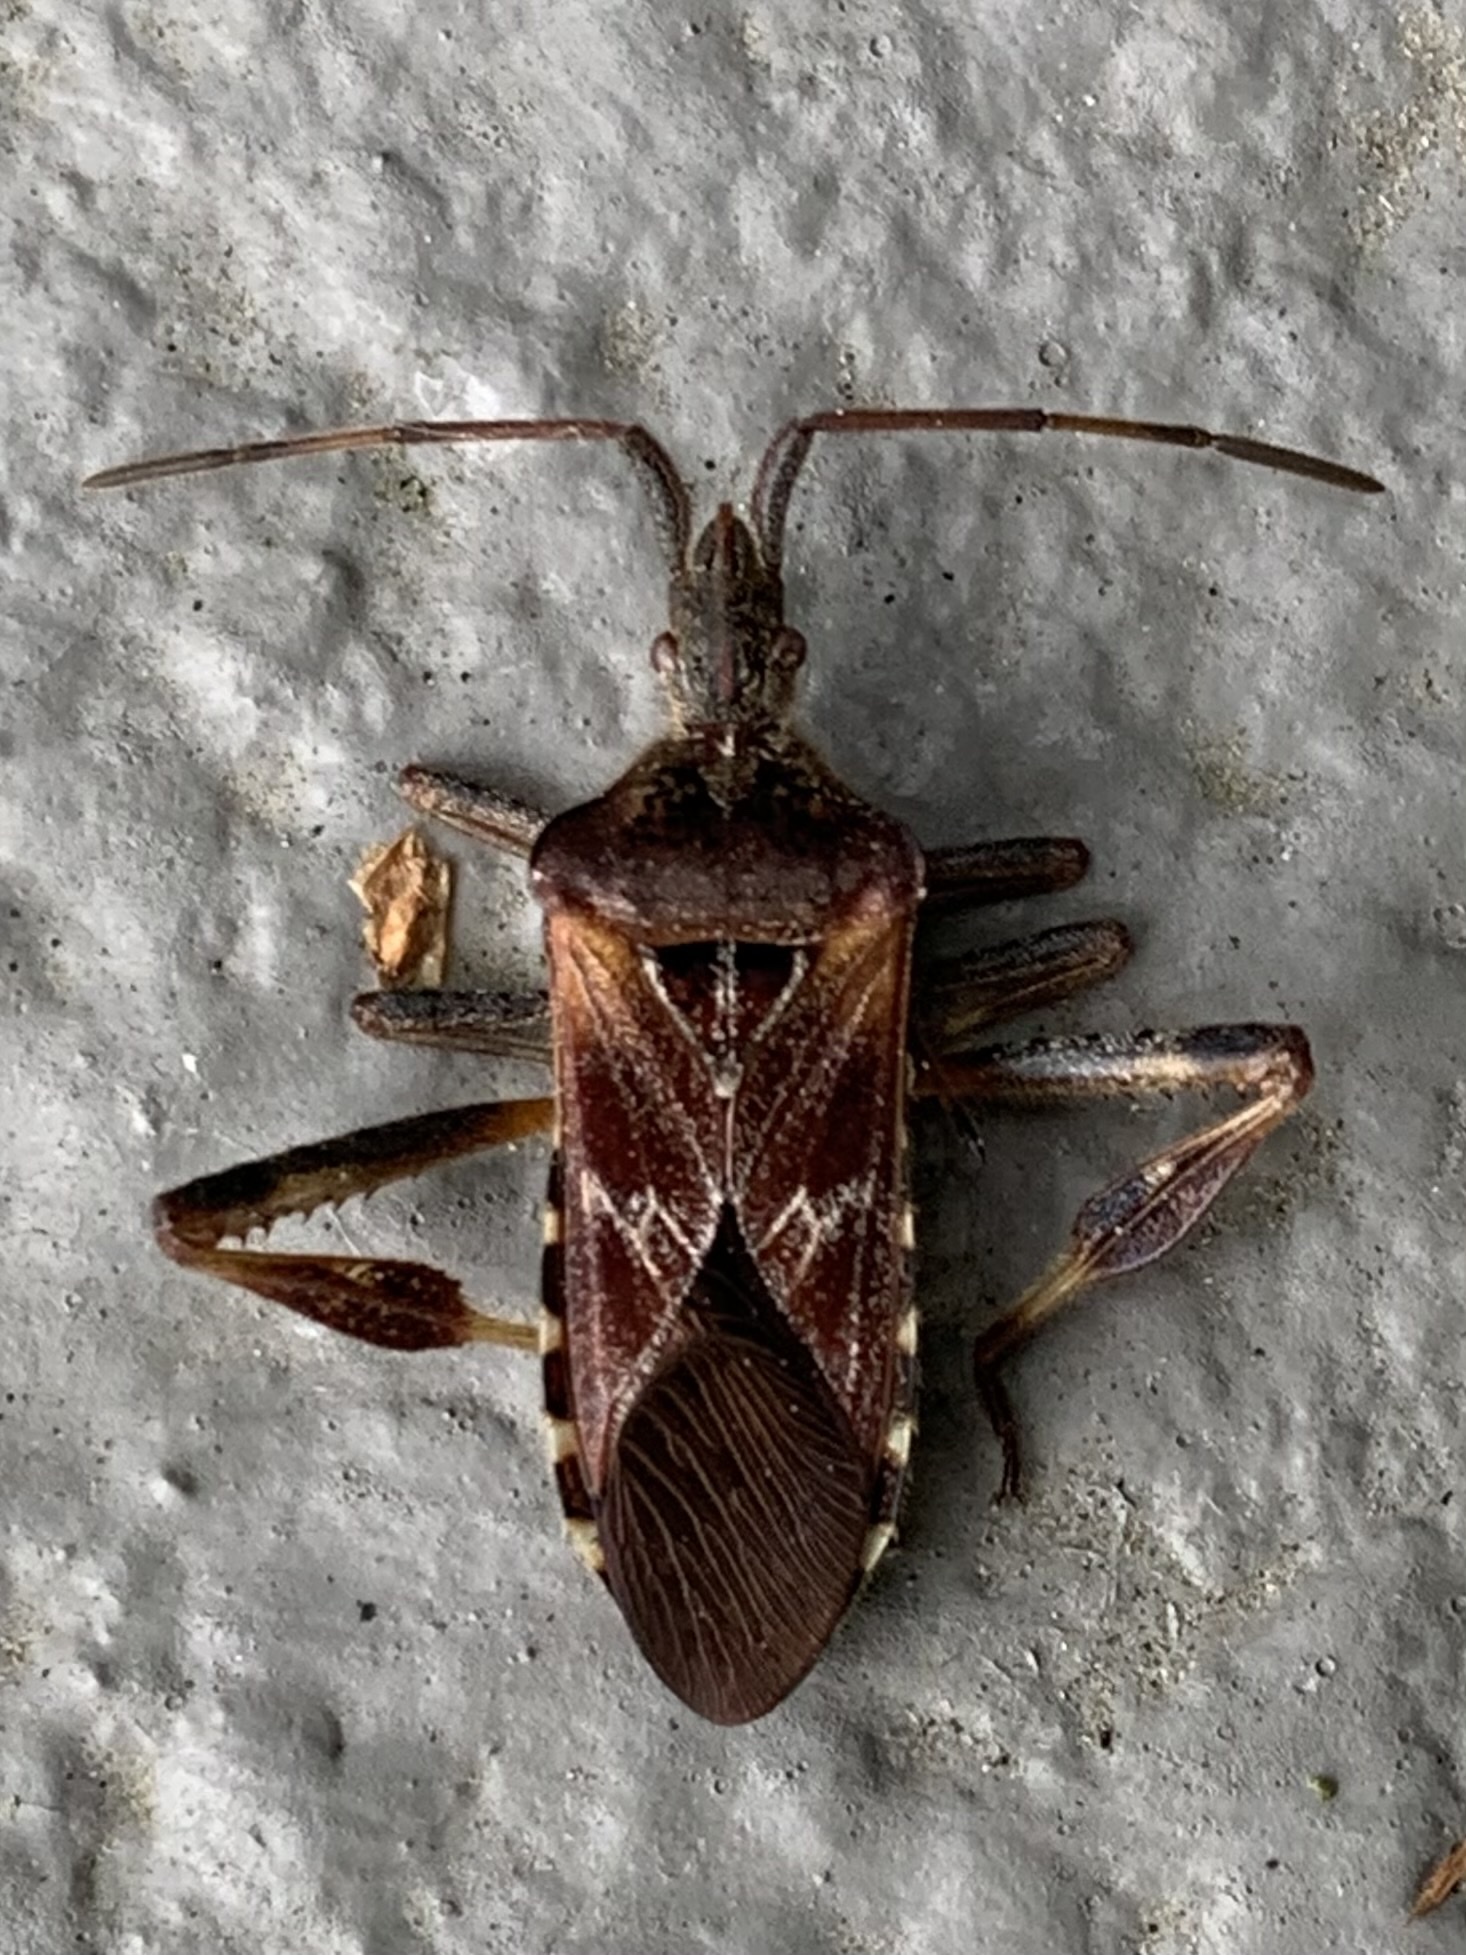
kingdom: Animalia
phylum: Arthropoda
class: Insecta
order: Hemiptera
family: Coreidae
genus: Leptoglossus
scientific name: Leptoglossus occidentalis
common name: Western conifer-seed bug
